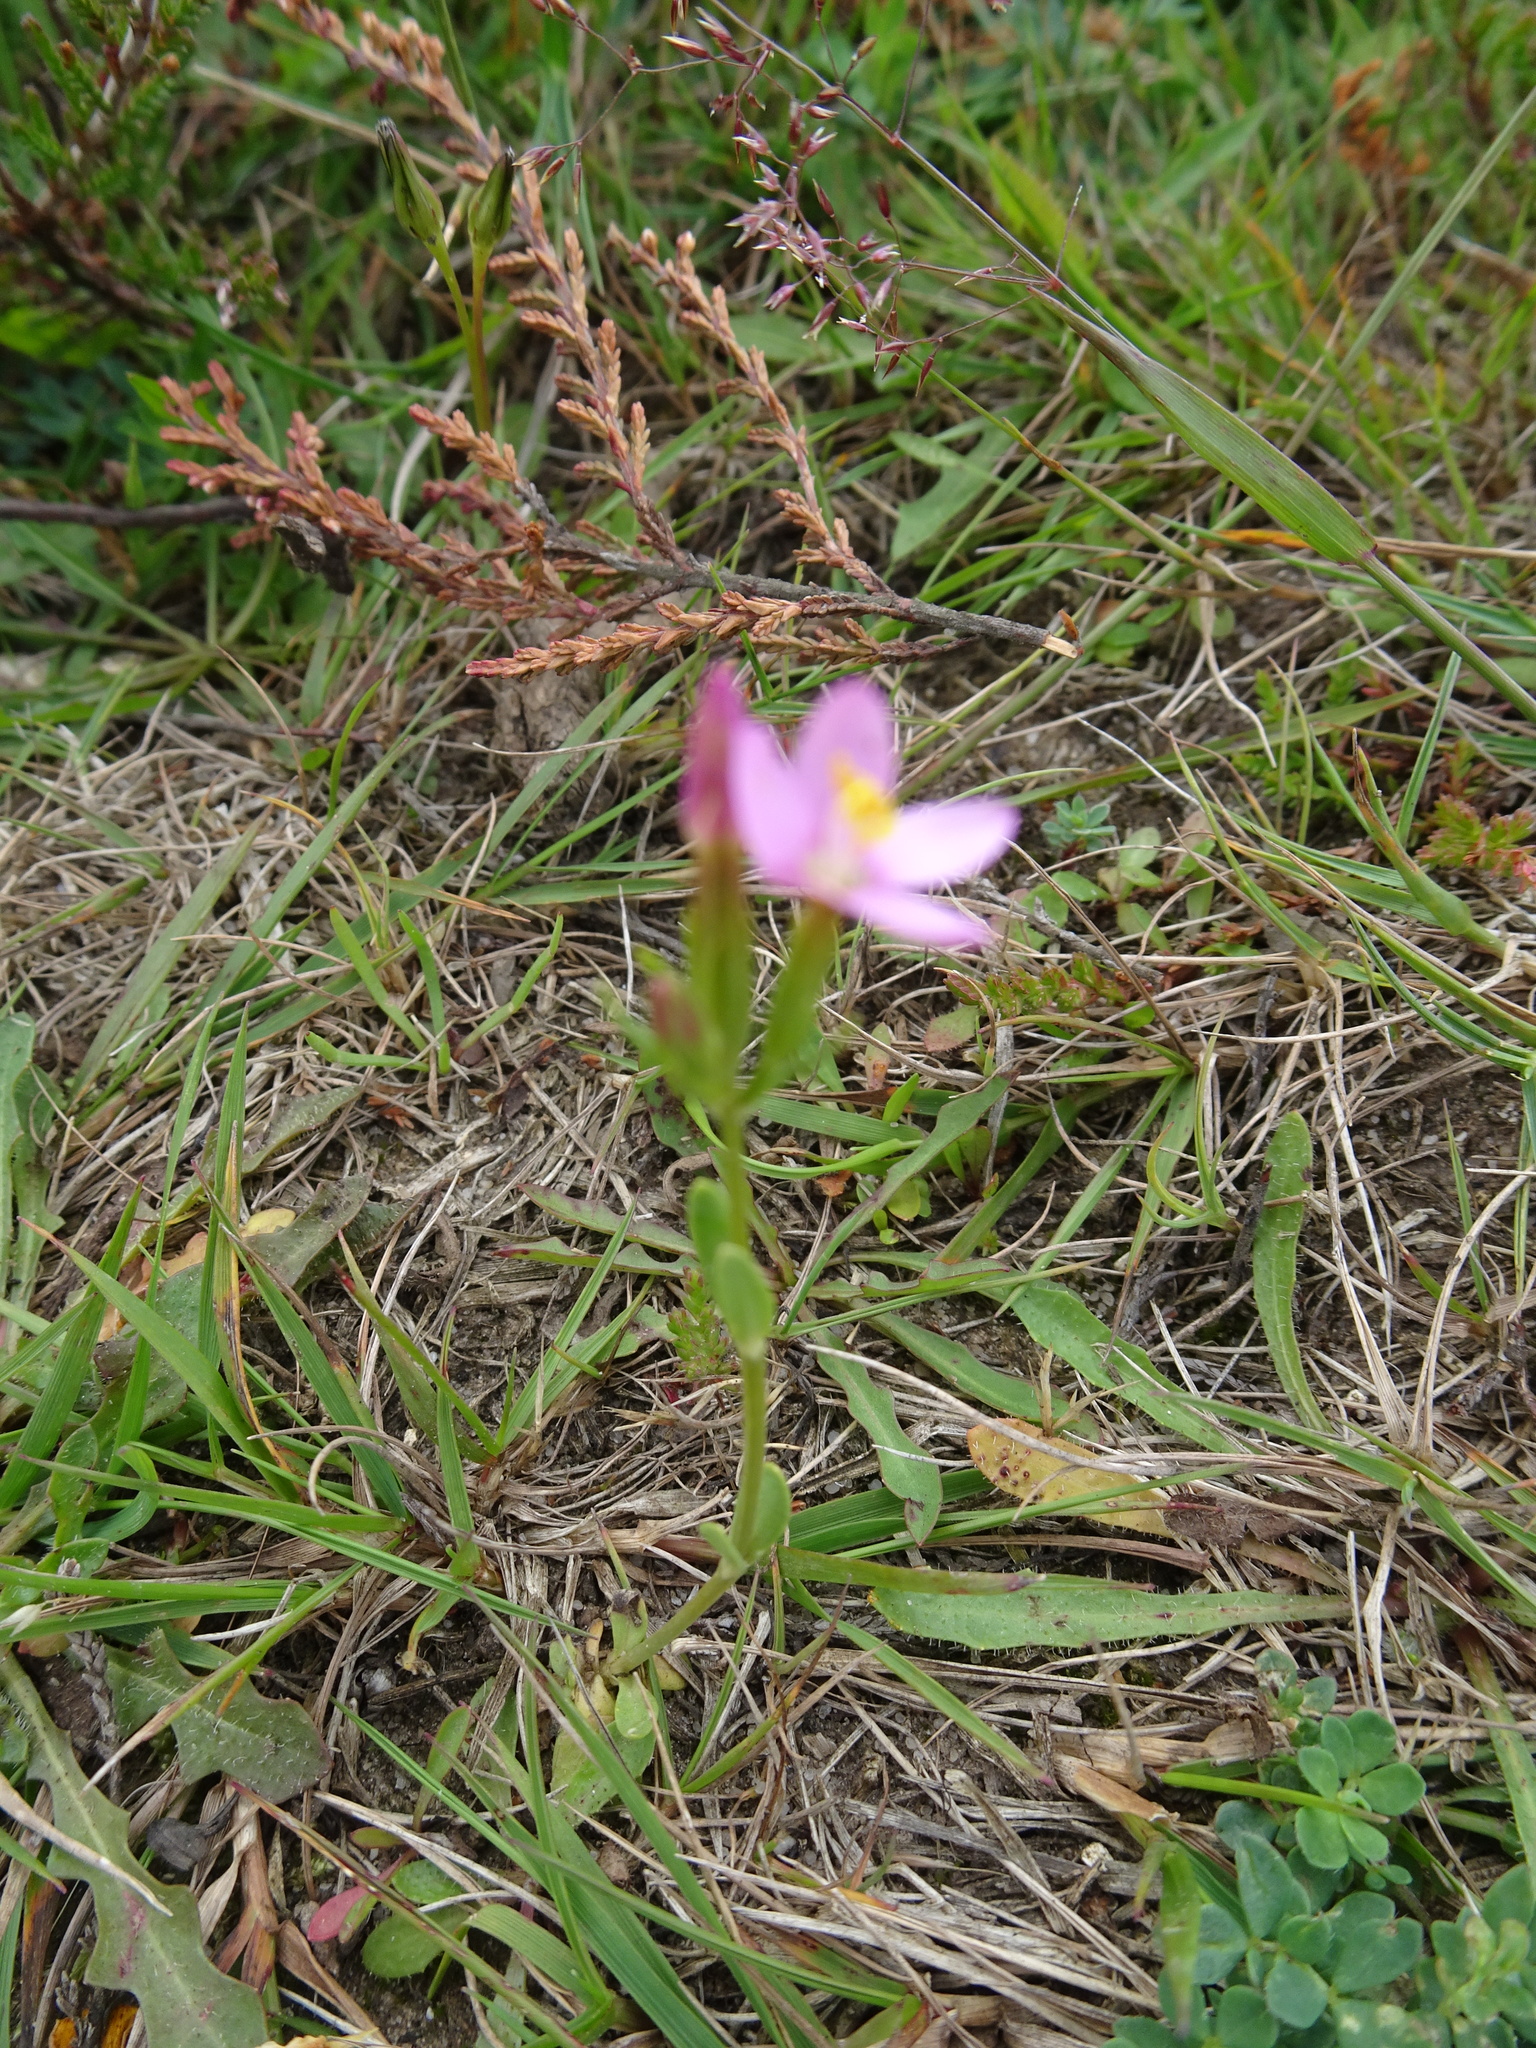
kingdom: Plantae
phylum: Tracheophyta
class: Magnoliopsida
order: Gentianales
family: Gentianaceae
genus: Centaurium
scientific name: Centaurium pulchellum
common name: Lesser centaury
